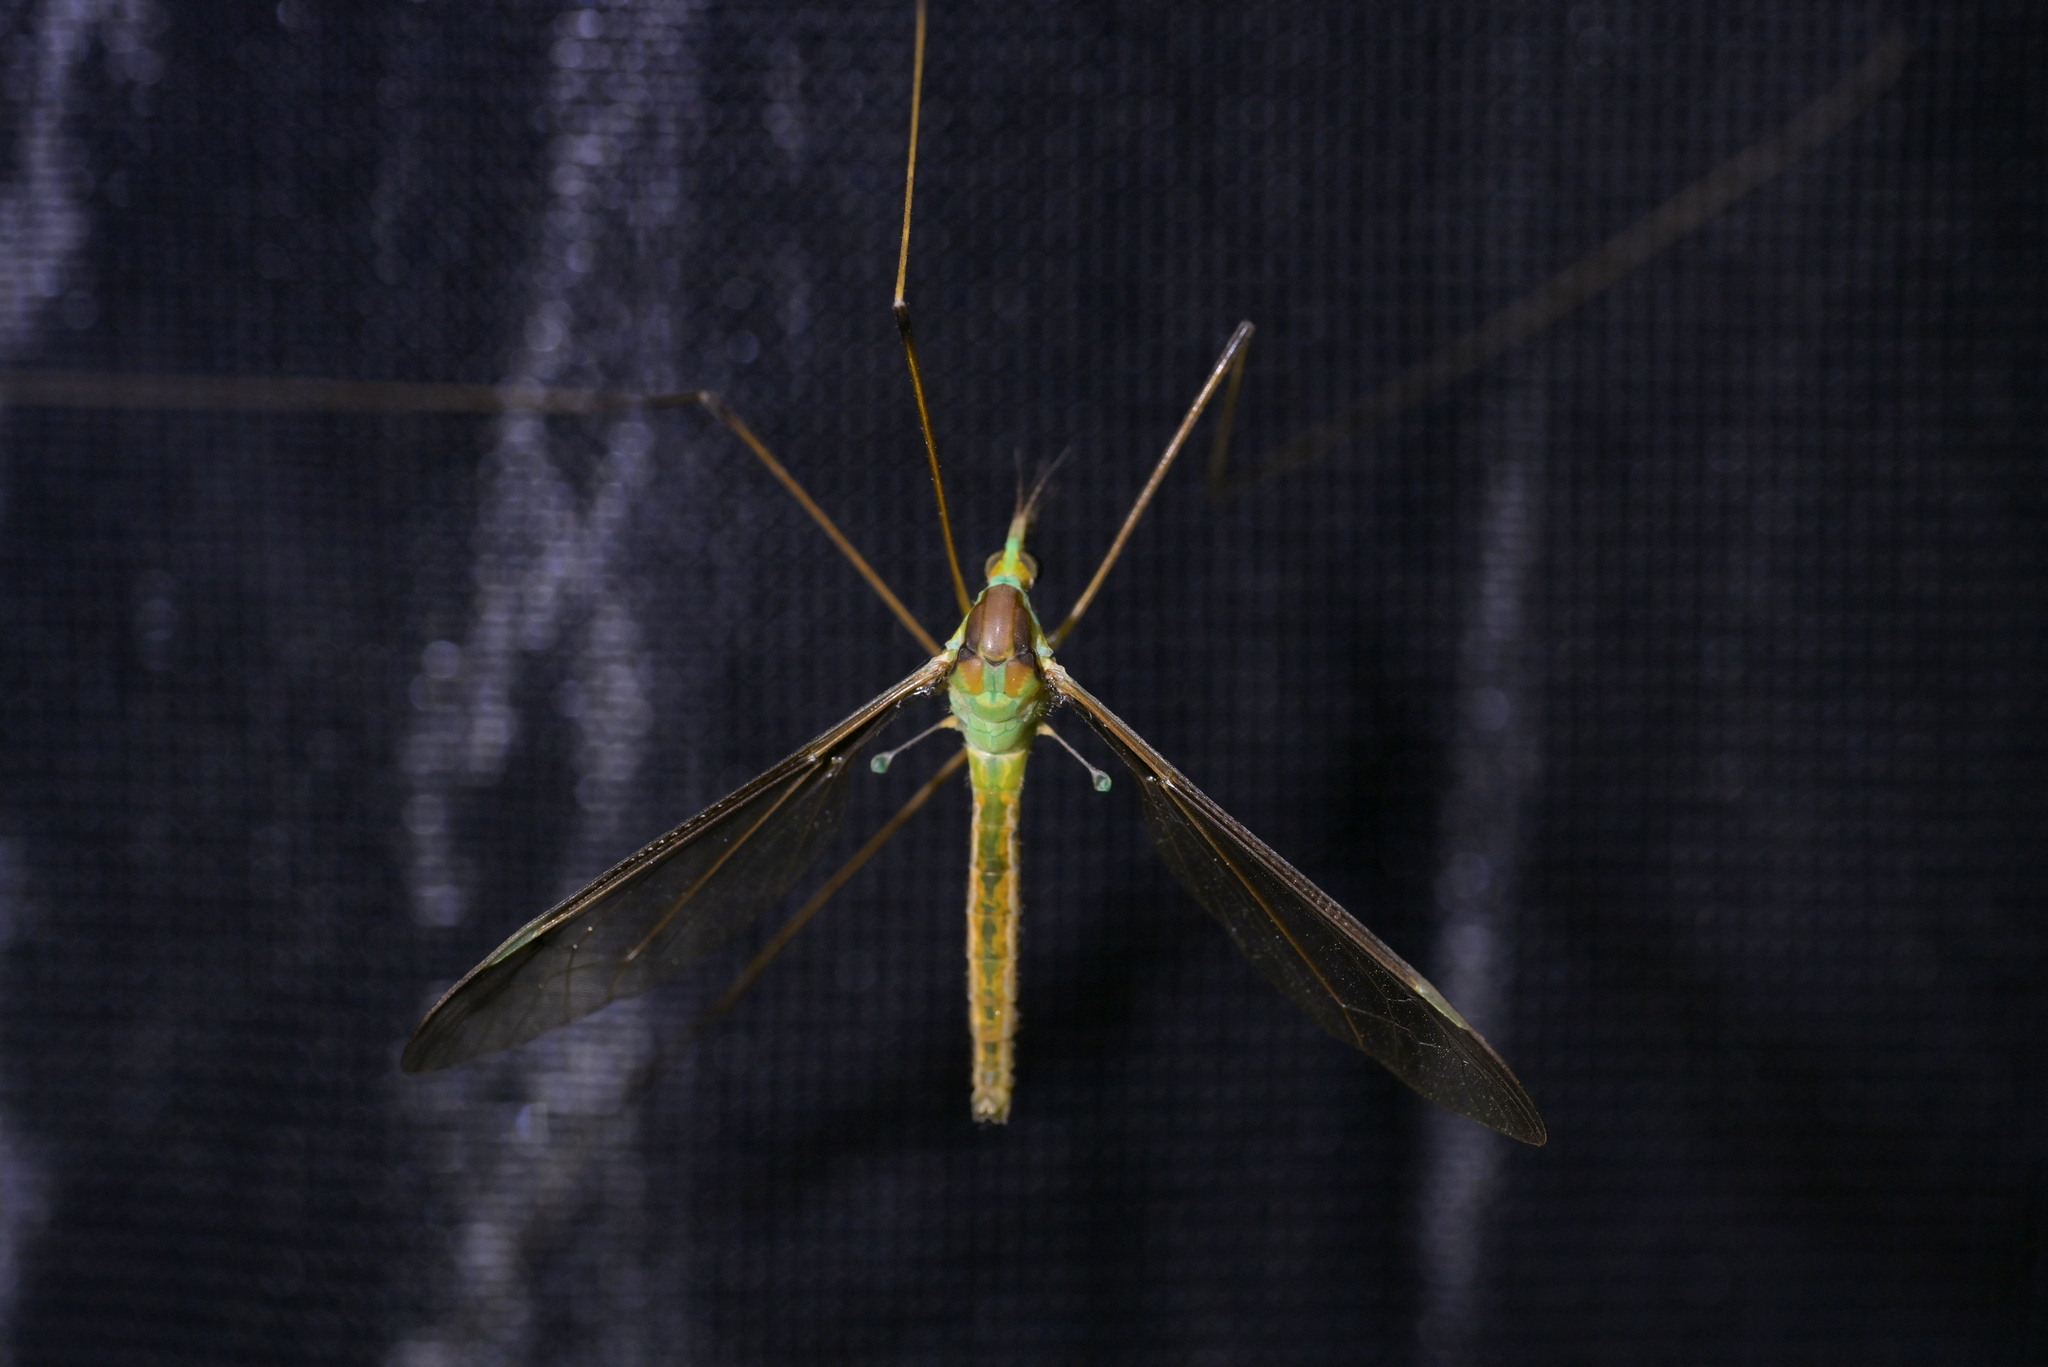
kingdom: Animalia
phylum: Arthropoda
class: Insecta
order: Diptera
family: Tipulidae
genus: Leptotarsus
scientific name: Leptotarsus albistigma
